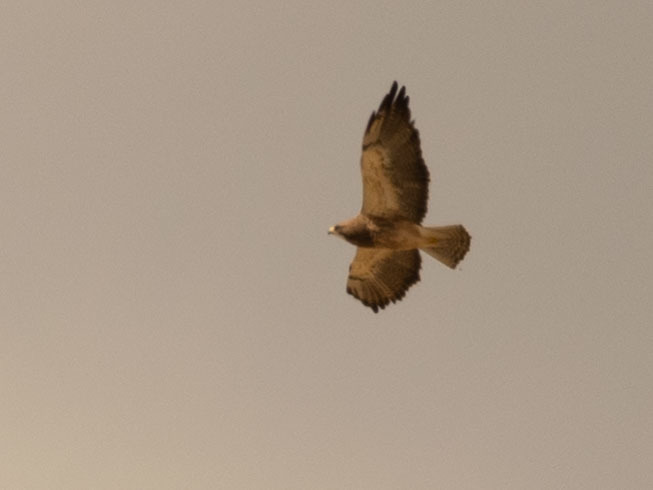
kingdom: Animalia
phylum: Chordata
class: Aves
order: Accipitriformes
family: Accipitridae
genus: Buteo
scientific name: Buteo swainsoni
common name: Swainson's hawk
